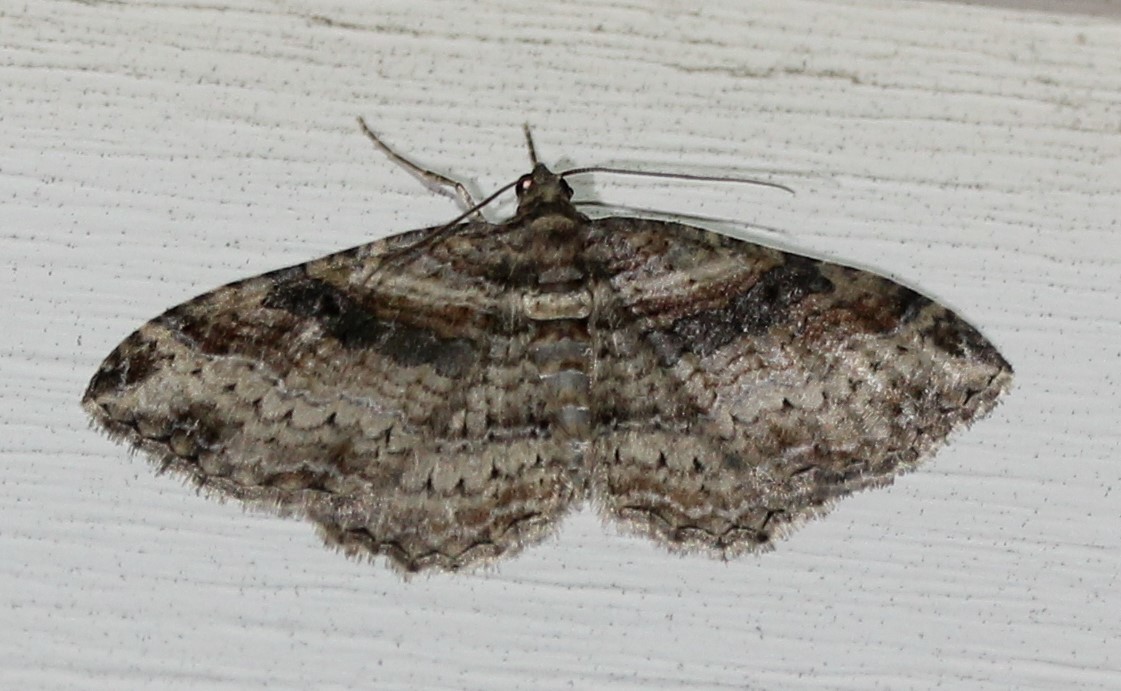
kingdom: Animalia
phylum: Arthropoda
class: Insecta
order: Lepidoptera
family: Geometridae
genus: Costaconvexa
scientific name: Costaconvexa centrostrigaria
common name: Bent-line carpet
